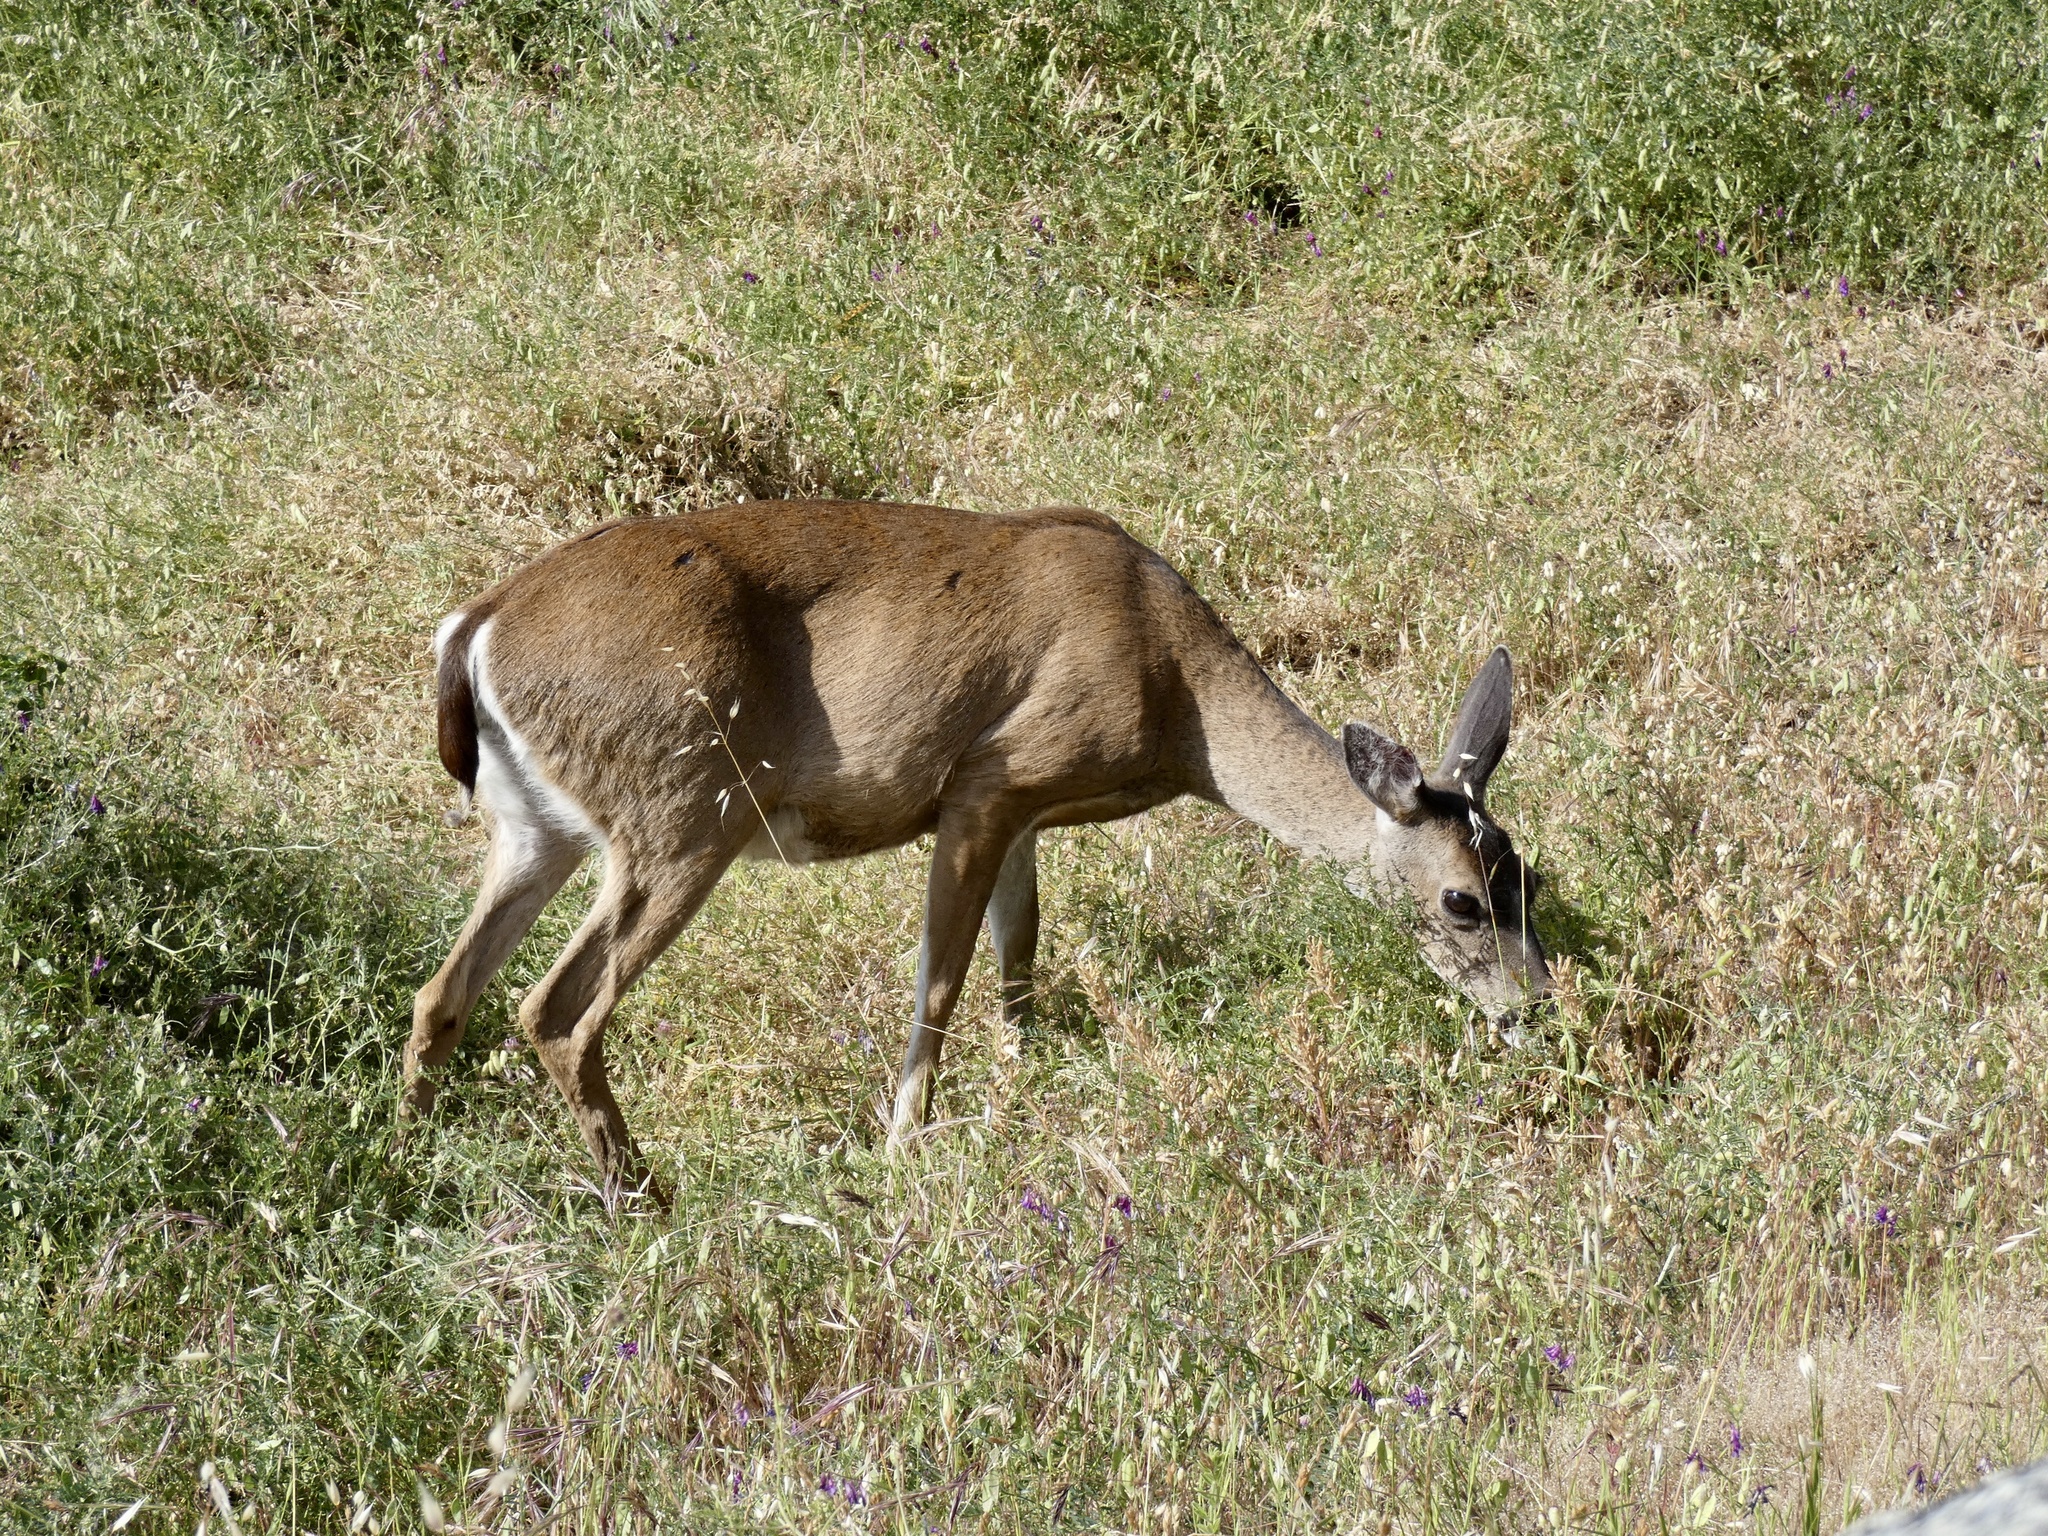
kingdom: Animalia
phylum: Chordata
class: Mammalia
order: Artiodactyla
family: Cervidae
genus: Odocoileus
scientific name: Odocoileus hemionus
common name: Mule deer
